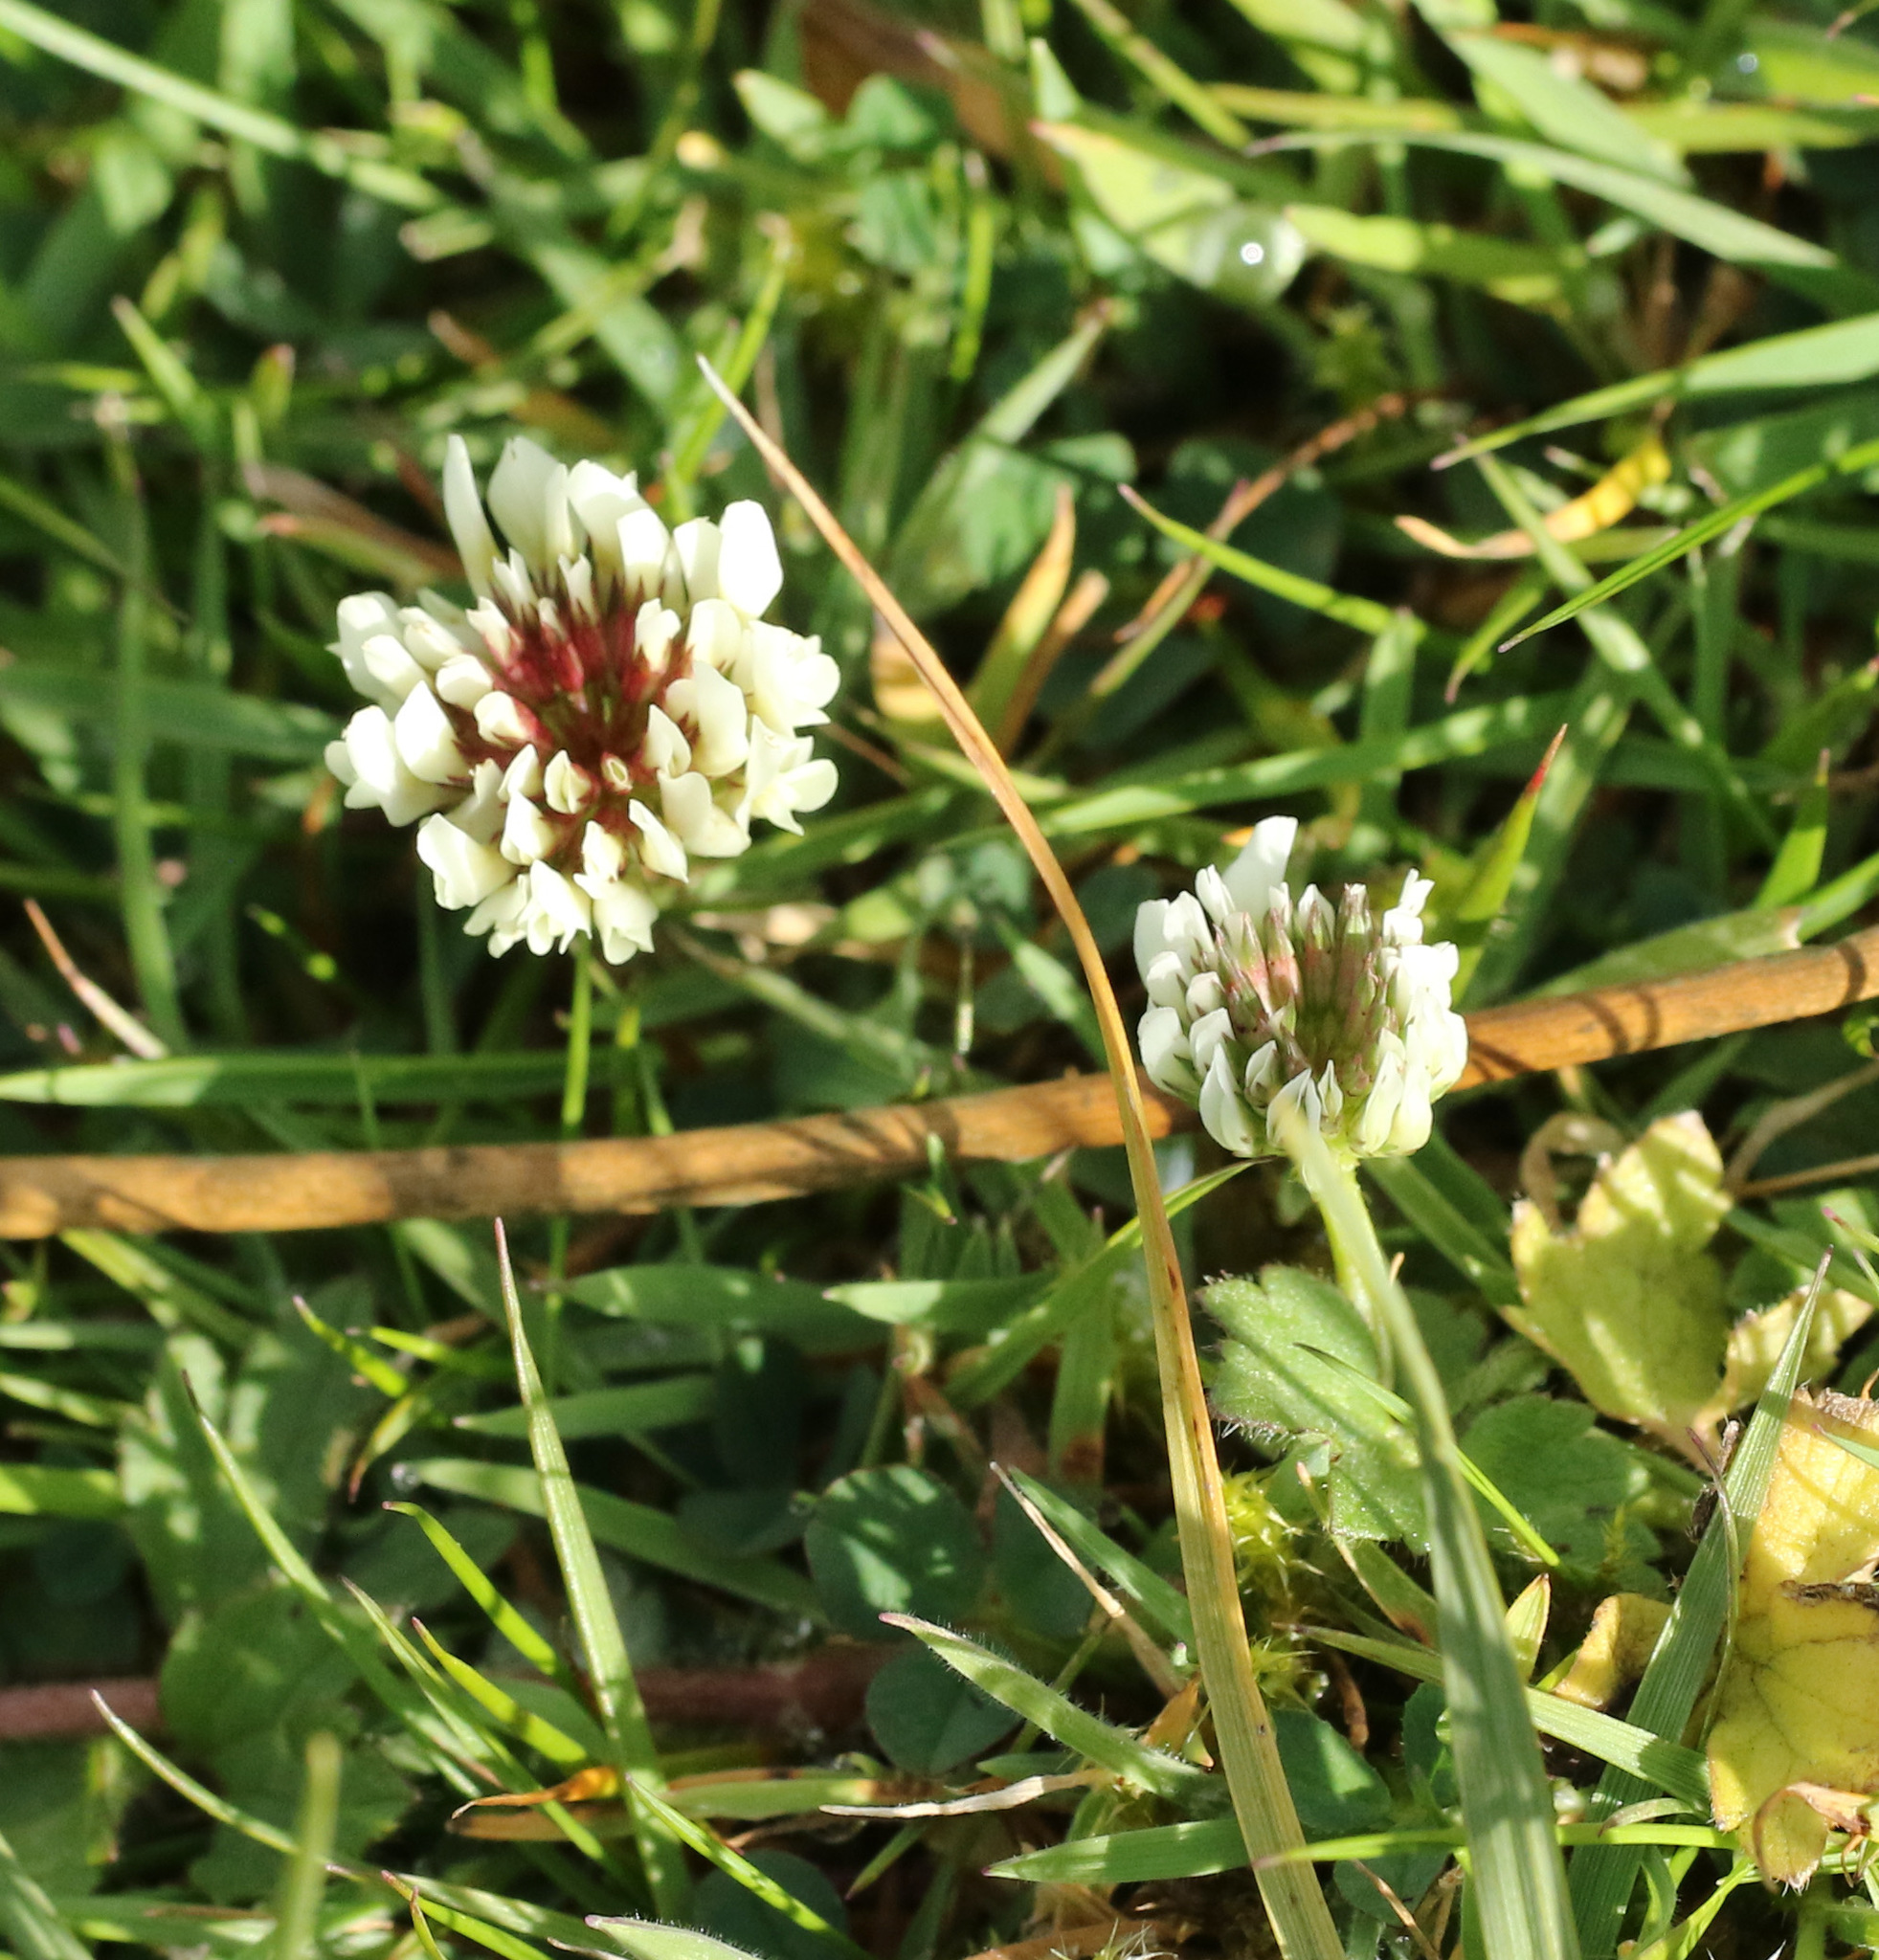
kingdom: Plantae
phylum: Tracheophyta
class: Magnoliopsida
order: Fabales
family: Fabaceae
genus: Trifolium
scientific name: Trifolium repens
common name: White clover
